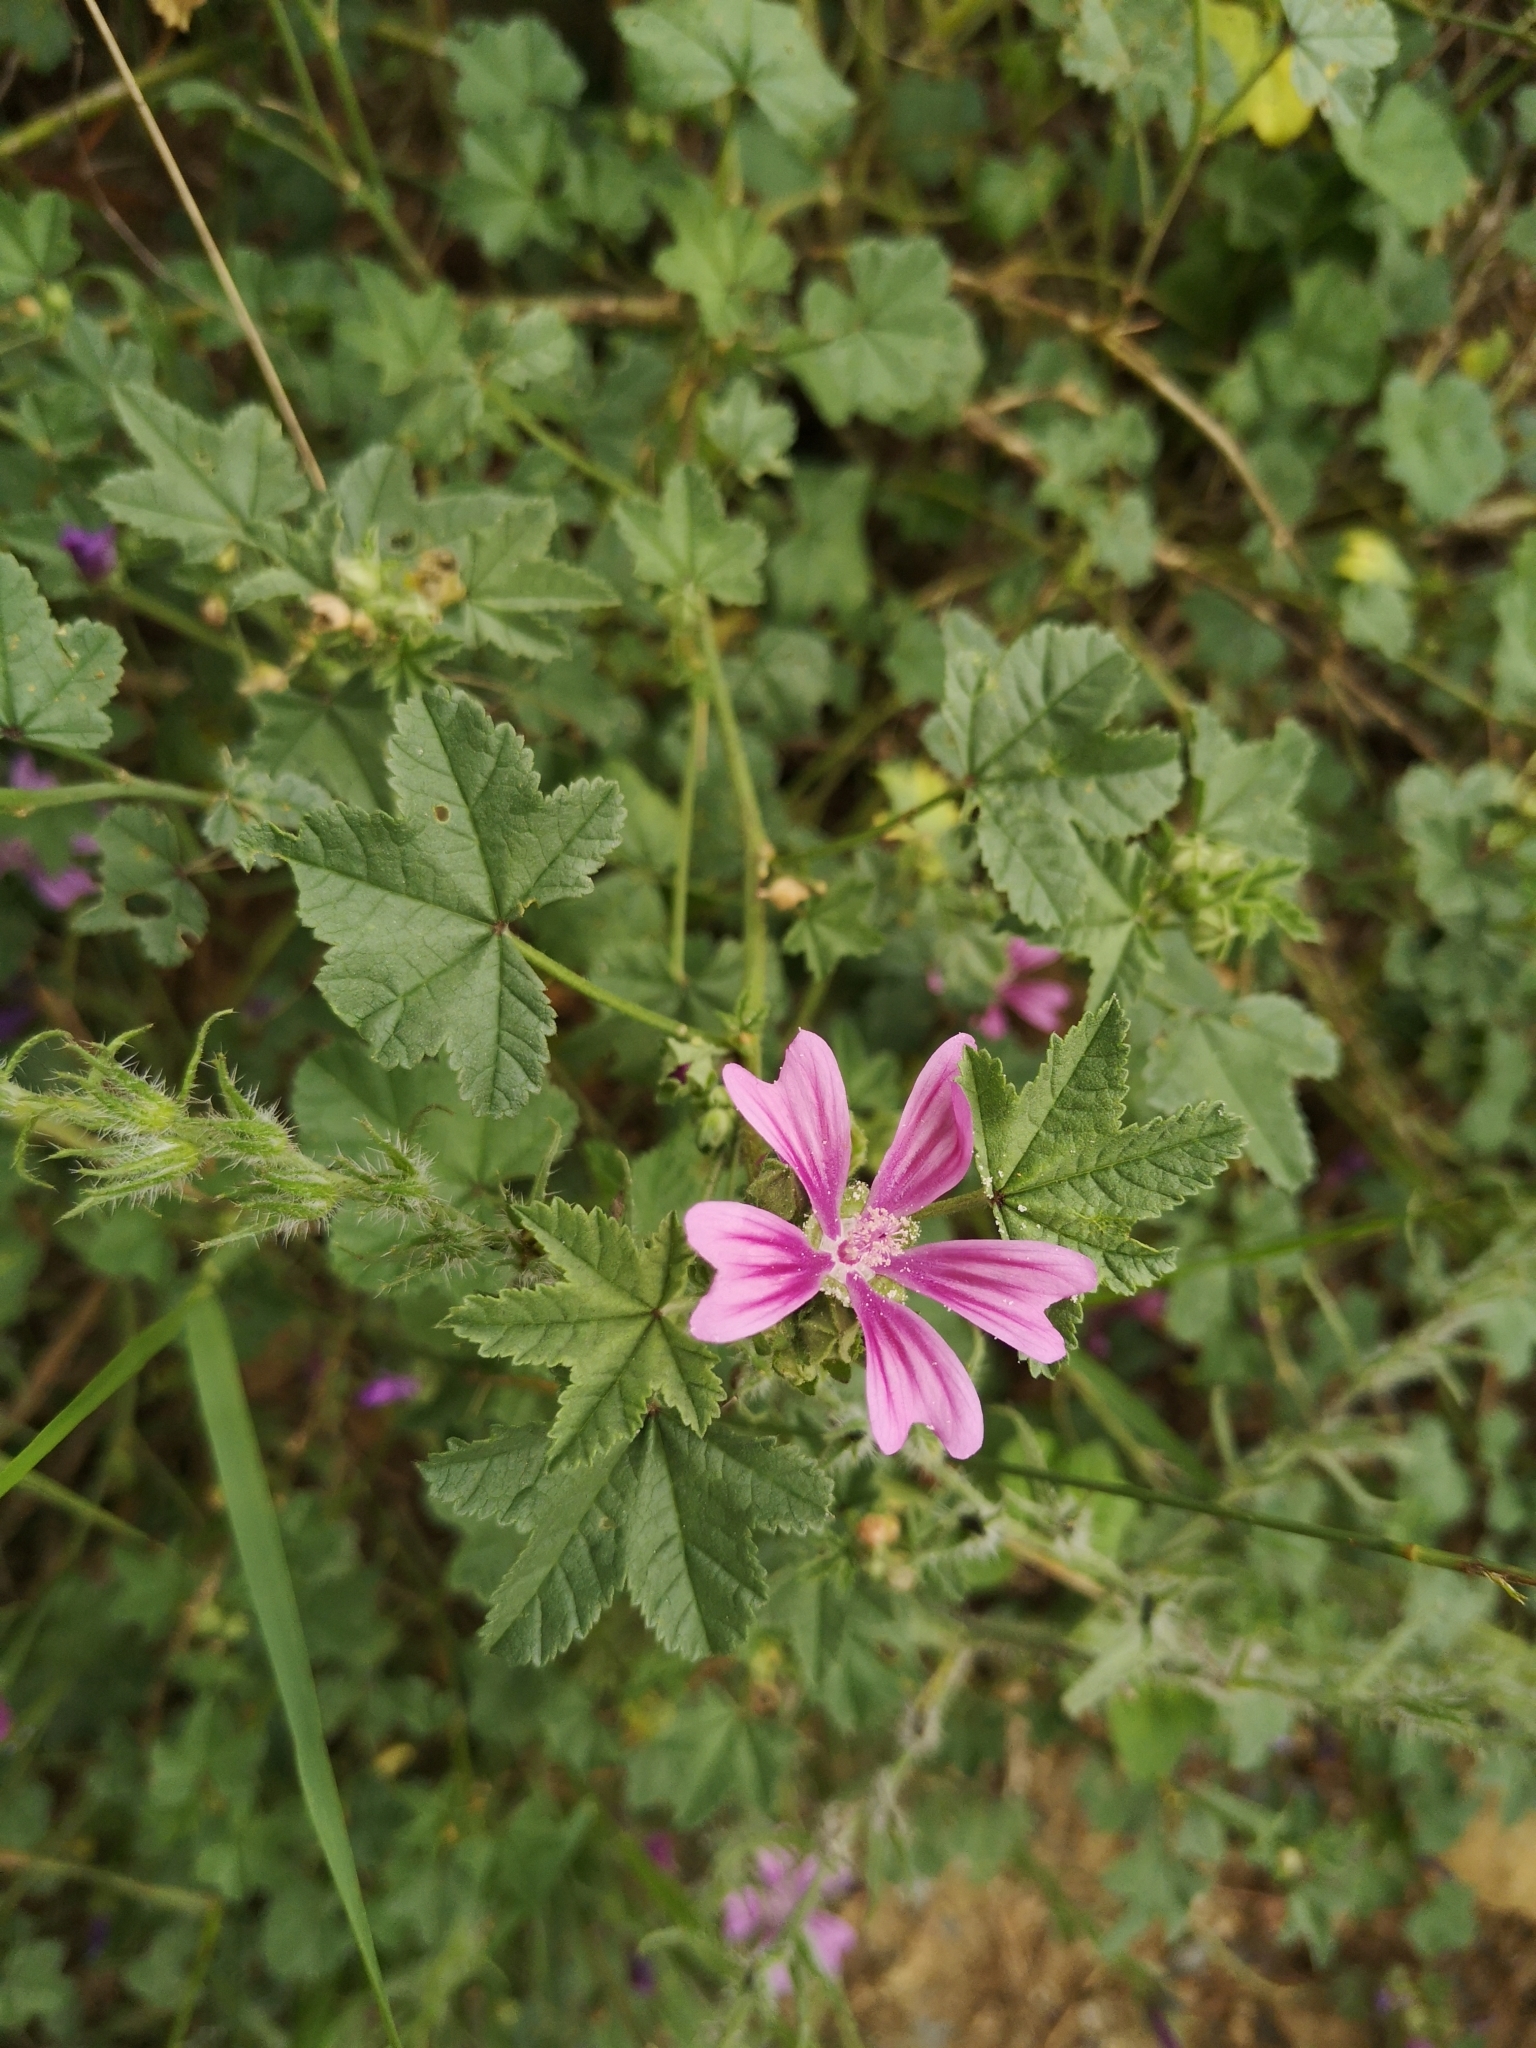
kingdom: Plantae
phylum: Tracheophyta
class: Magnoliopsida
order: Malvales
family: Malvaceae
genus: Malva
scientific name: Malva sylvestris
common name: Common mallow
